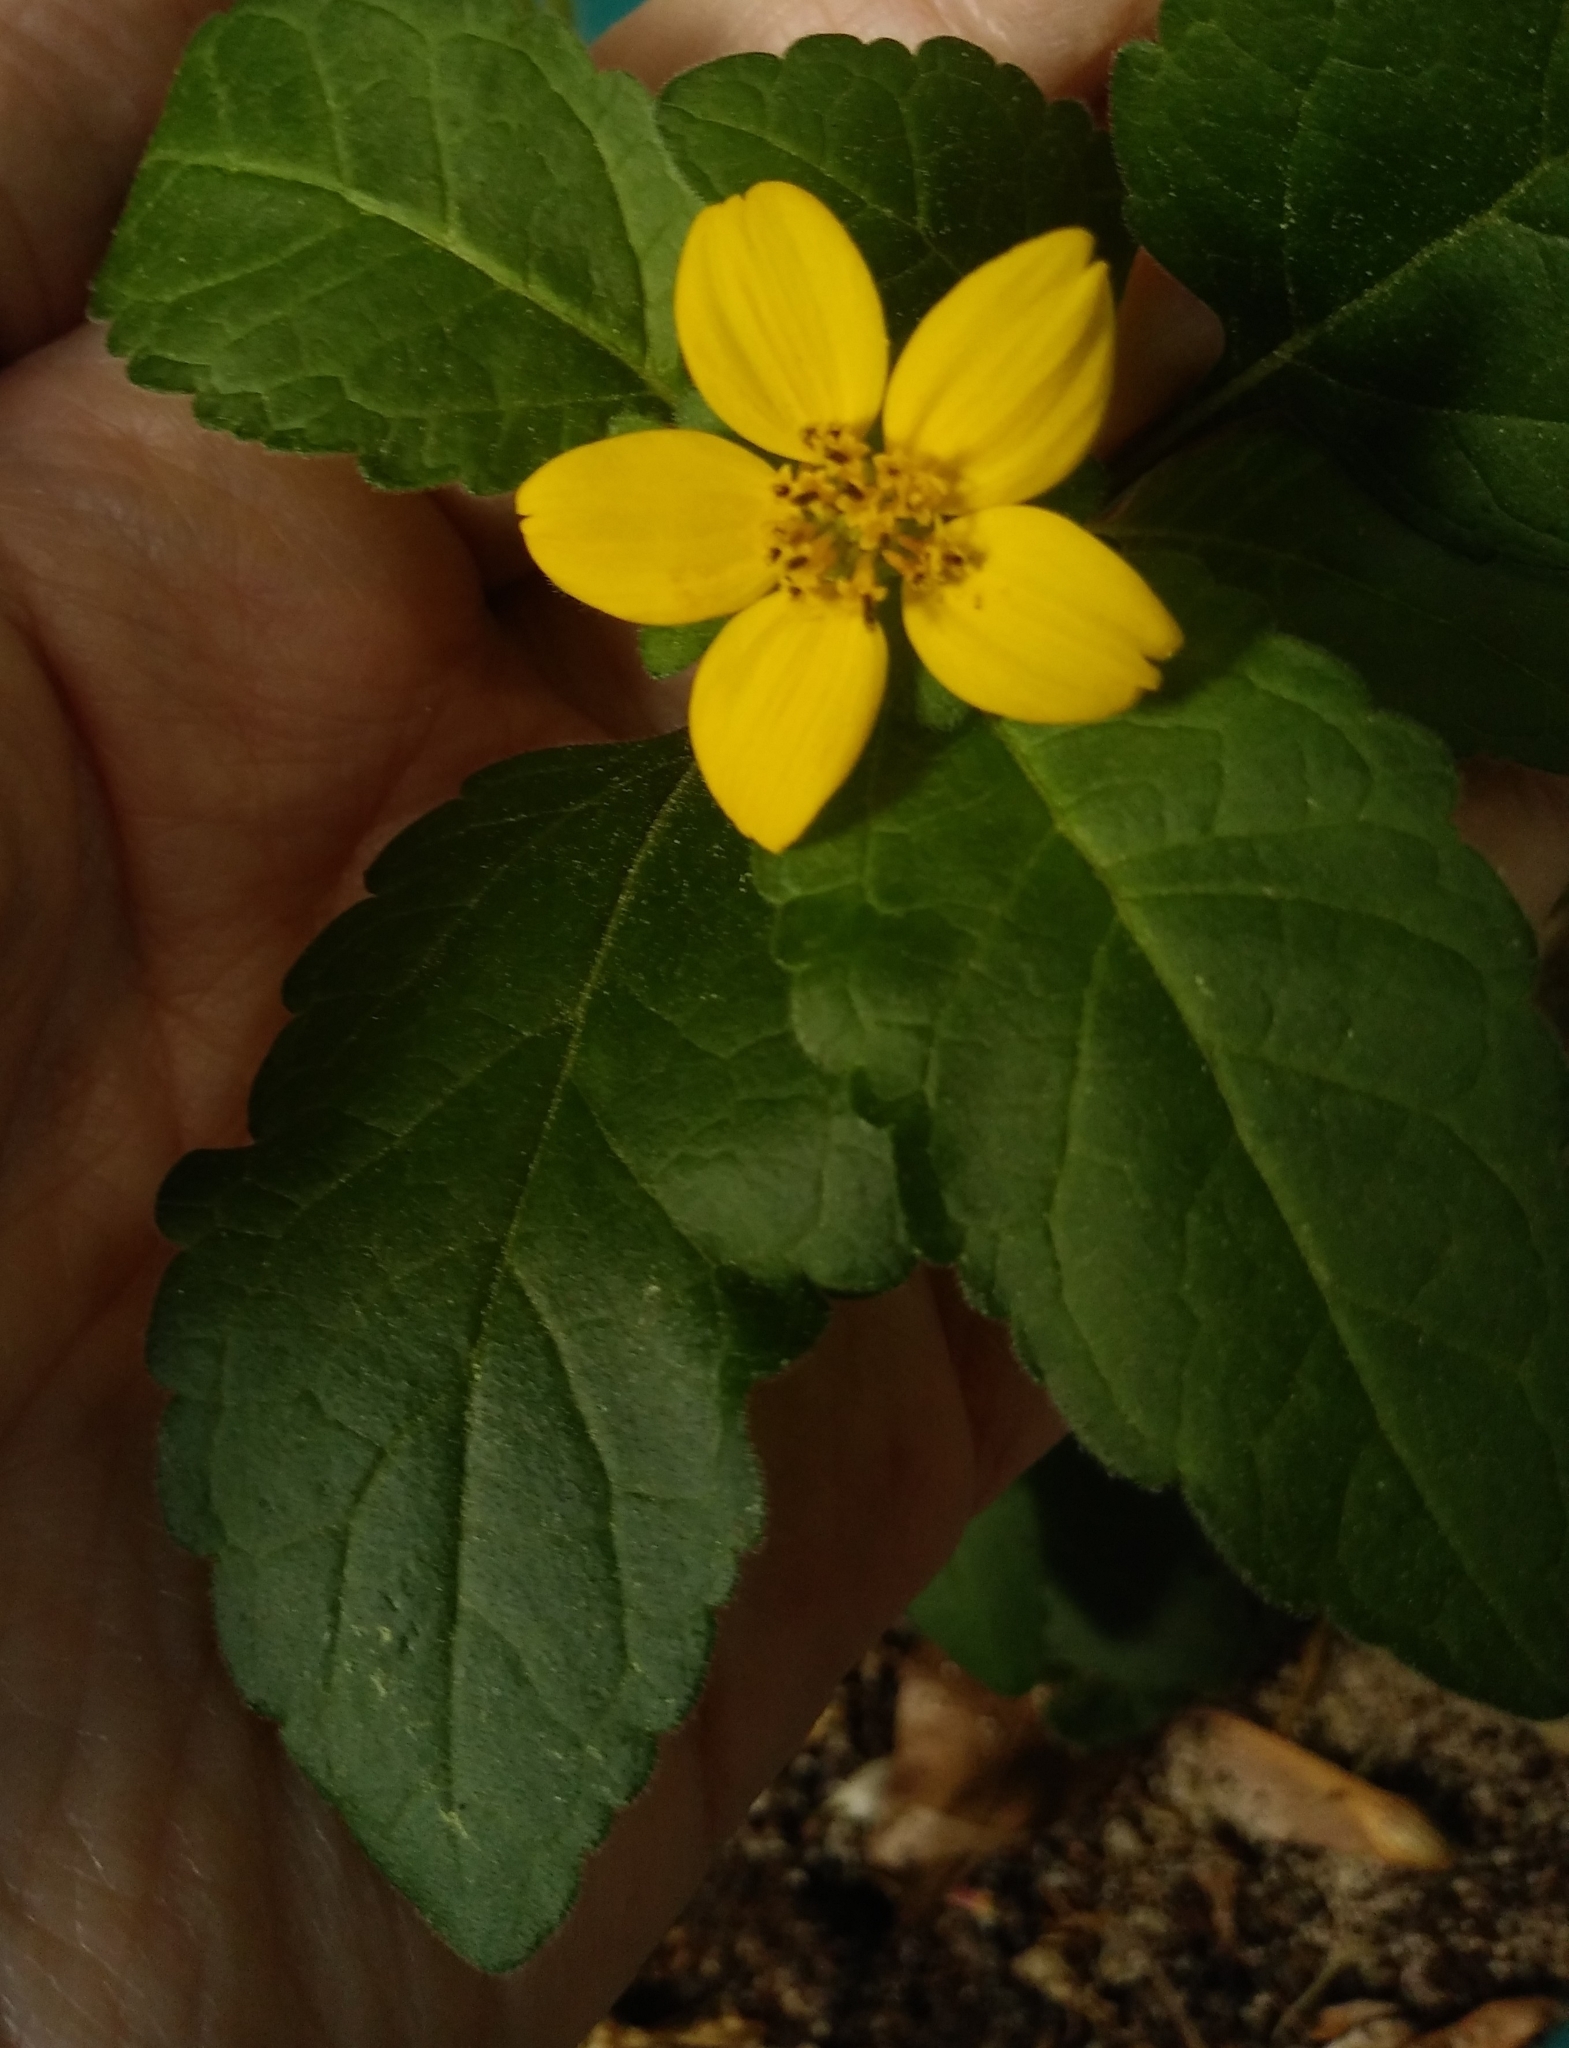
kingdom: Plantae
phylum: Tracheophyta
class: Magnoliopsida
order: Asterales
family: Asteraceae
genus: Chrysogonum
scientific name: Chrysogonum virginianum
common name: Golden-knee
